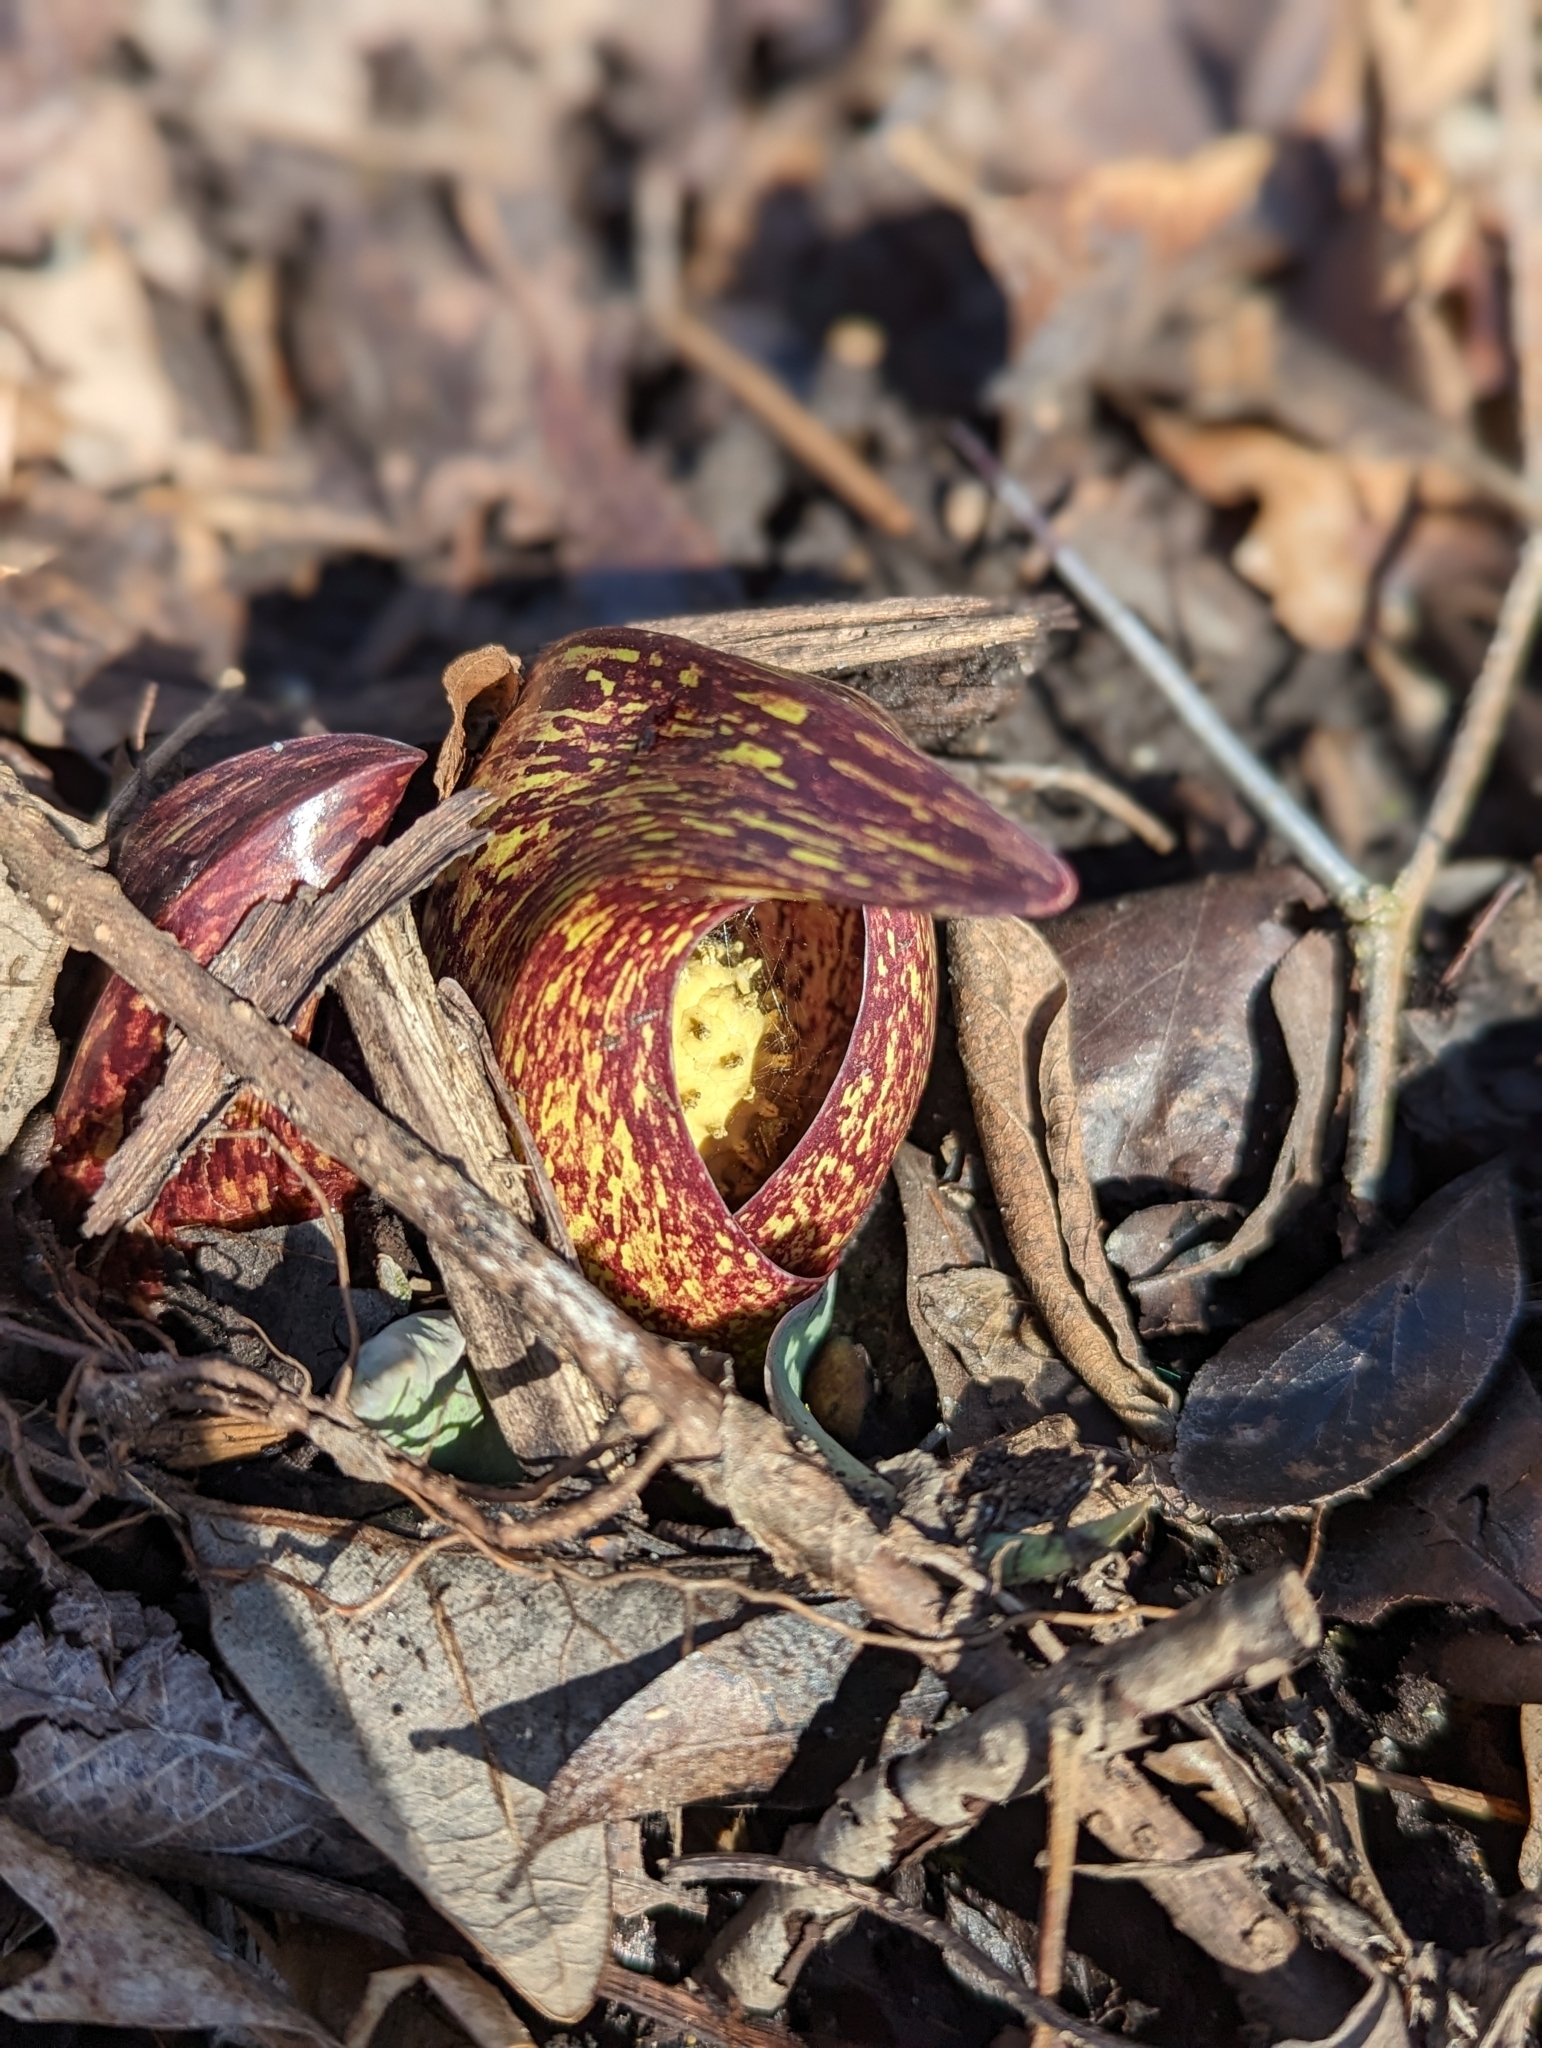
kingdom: Plantae
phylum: Tracheophyta
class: Liliopsida
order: Alismatales
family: Araceae
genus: Symplocarpus
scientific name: Symplocarpus foetidus
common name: Eastern skunk cabbage
